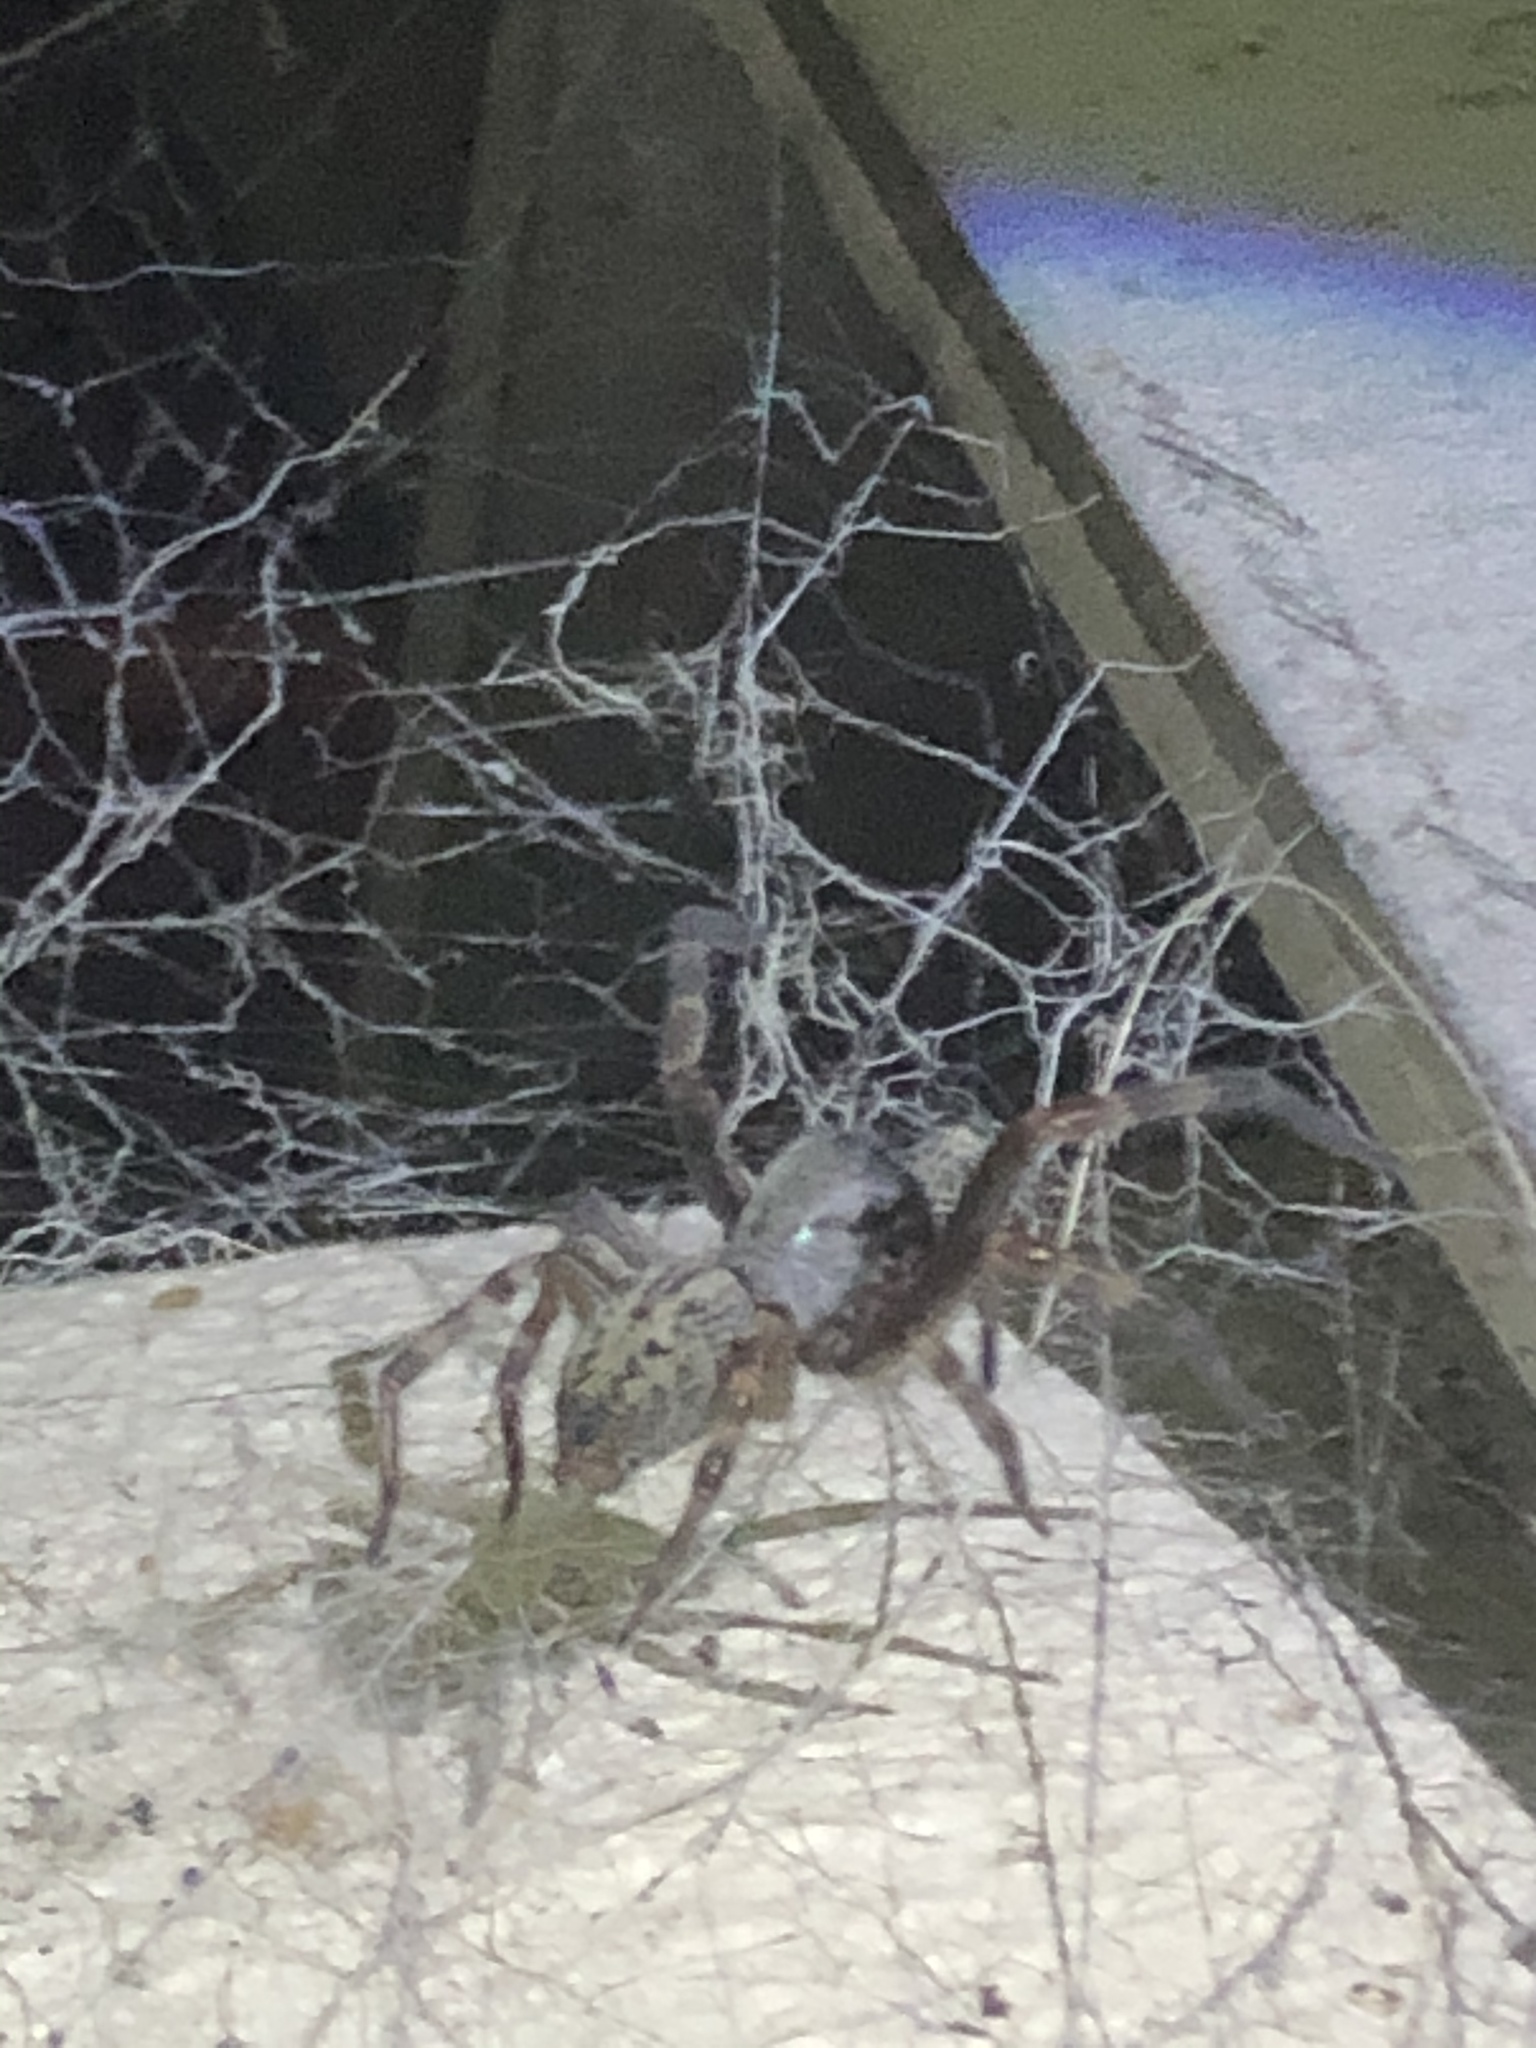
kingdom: Animalia
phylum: Arthropoda
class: Arachnida
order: Araneae
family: Desidae
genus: Badumna
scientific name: Badumna longinqua
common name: Gray house spider
